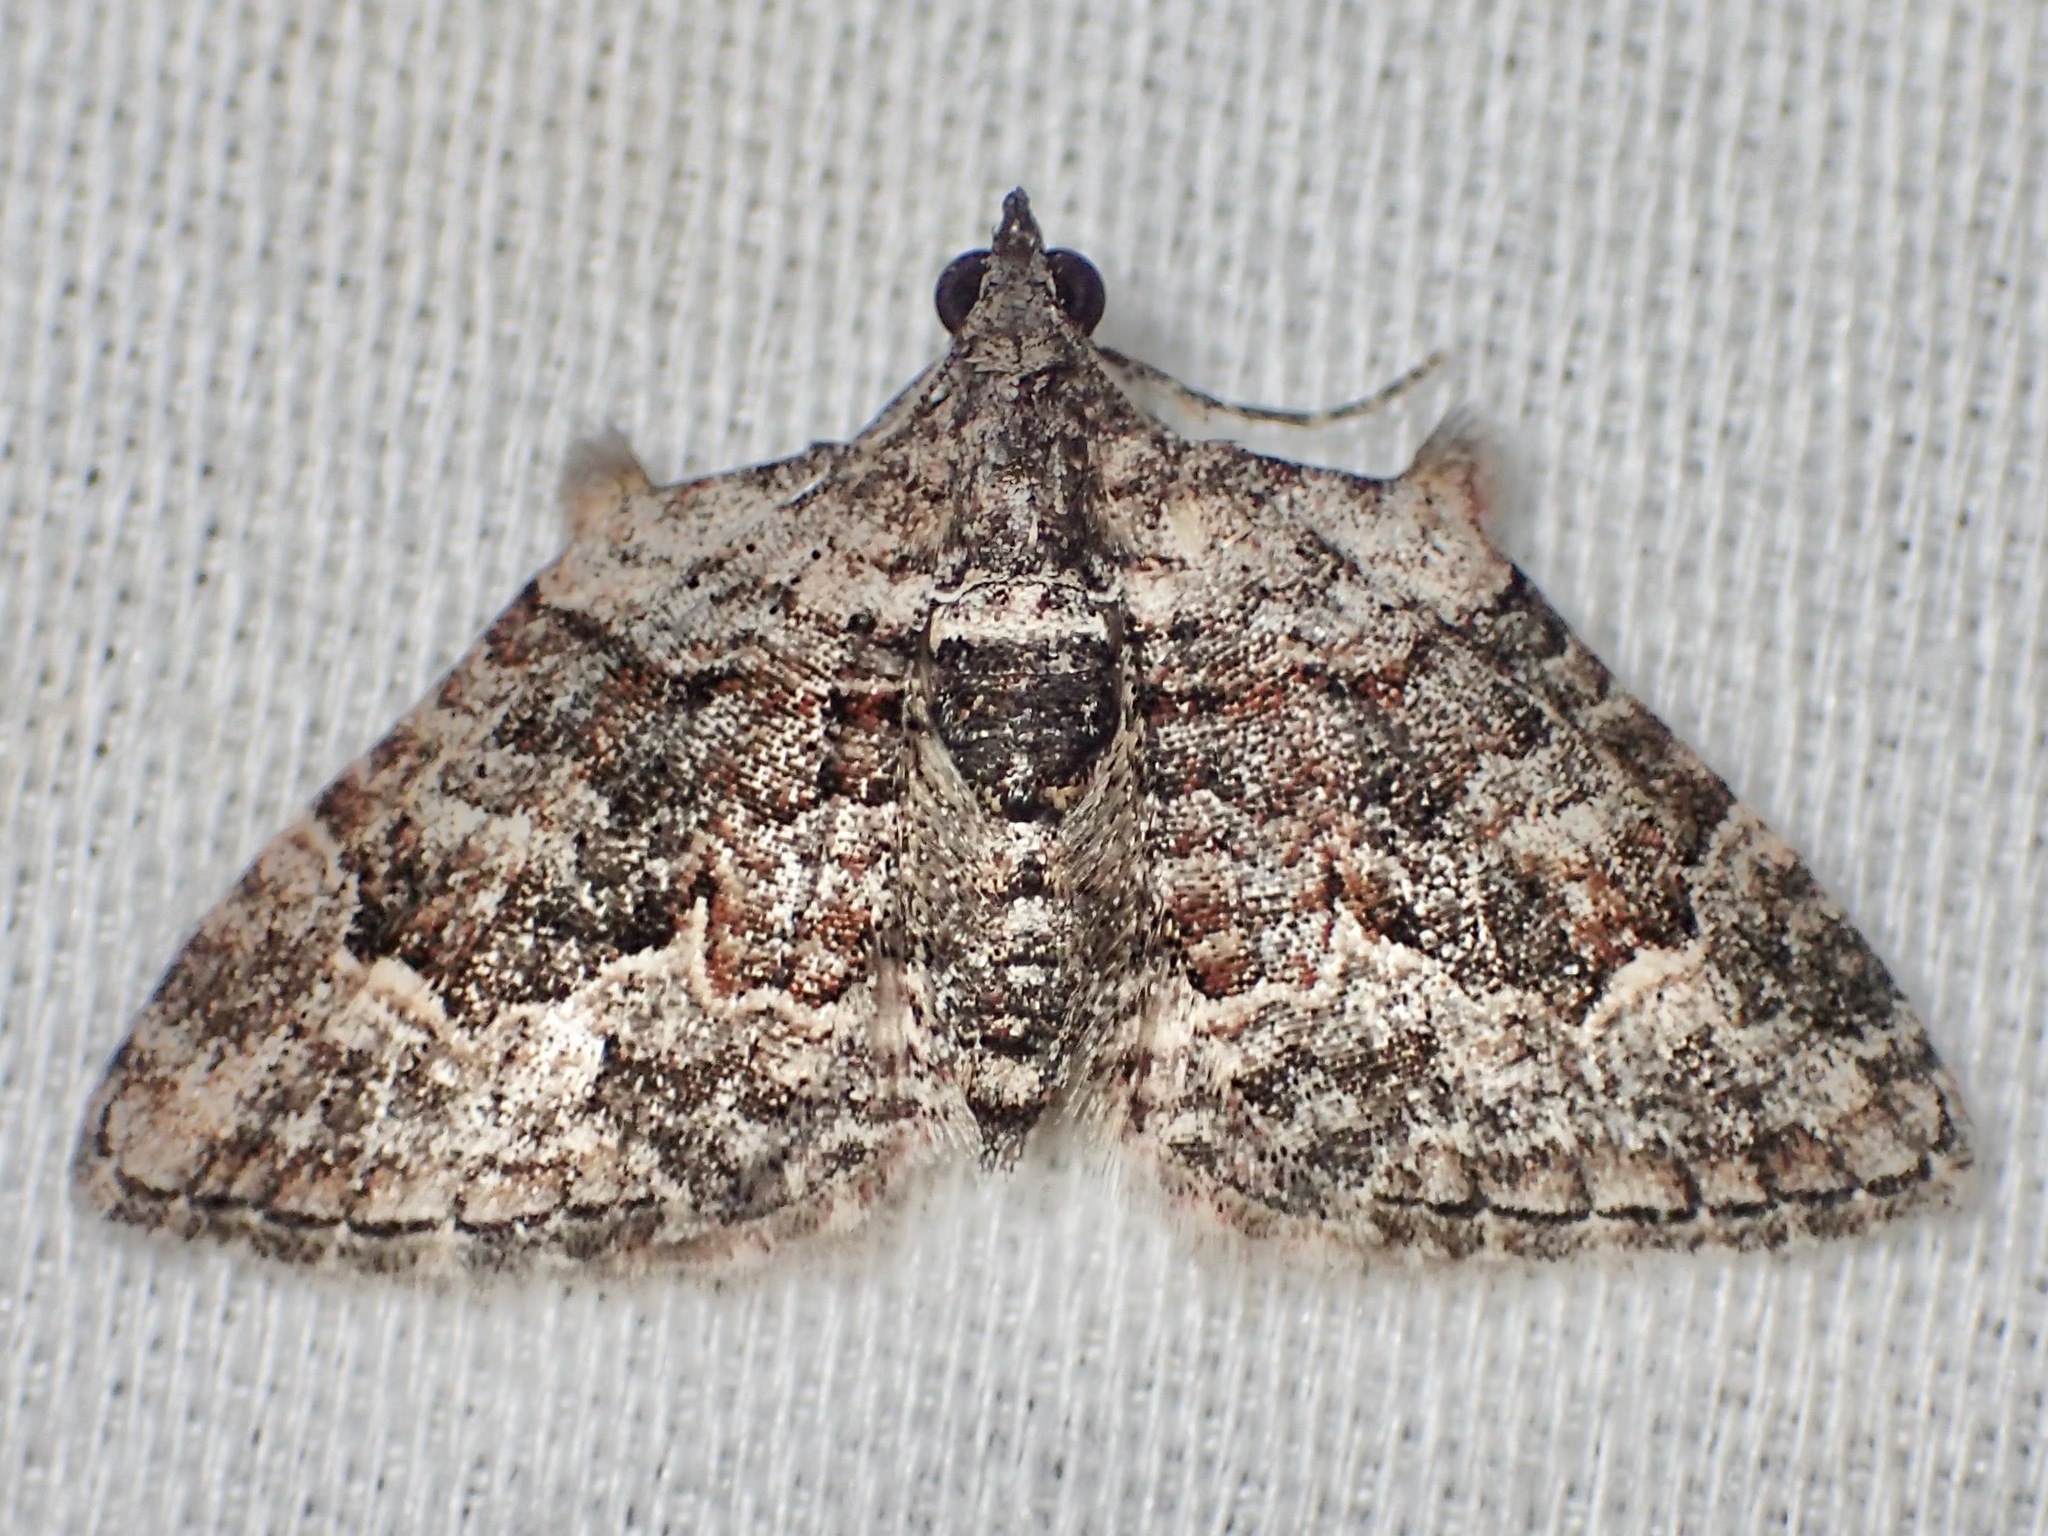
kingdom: Animalia
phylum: Arthropoda
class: Insecta
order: Lepidoptera
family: Geometridae
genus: Phrissogonus
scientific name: Phrissogonus laticostata
